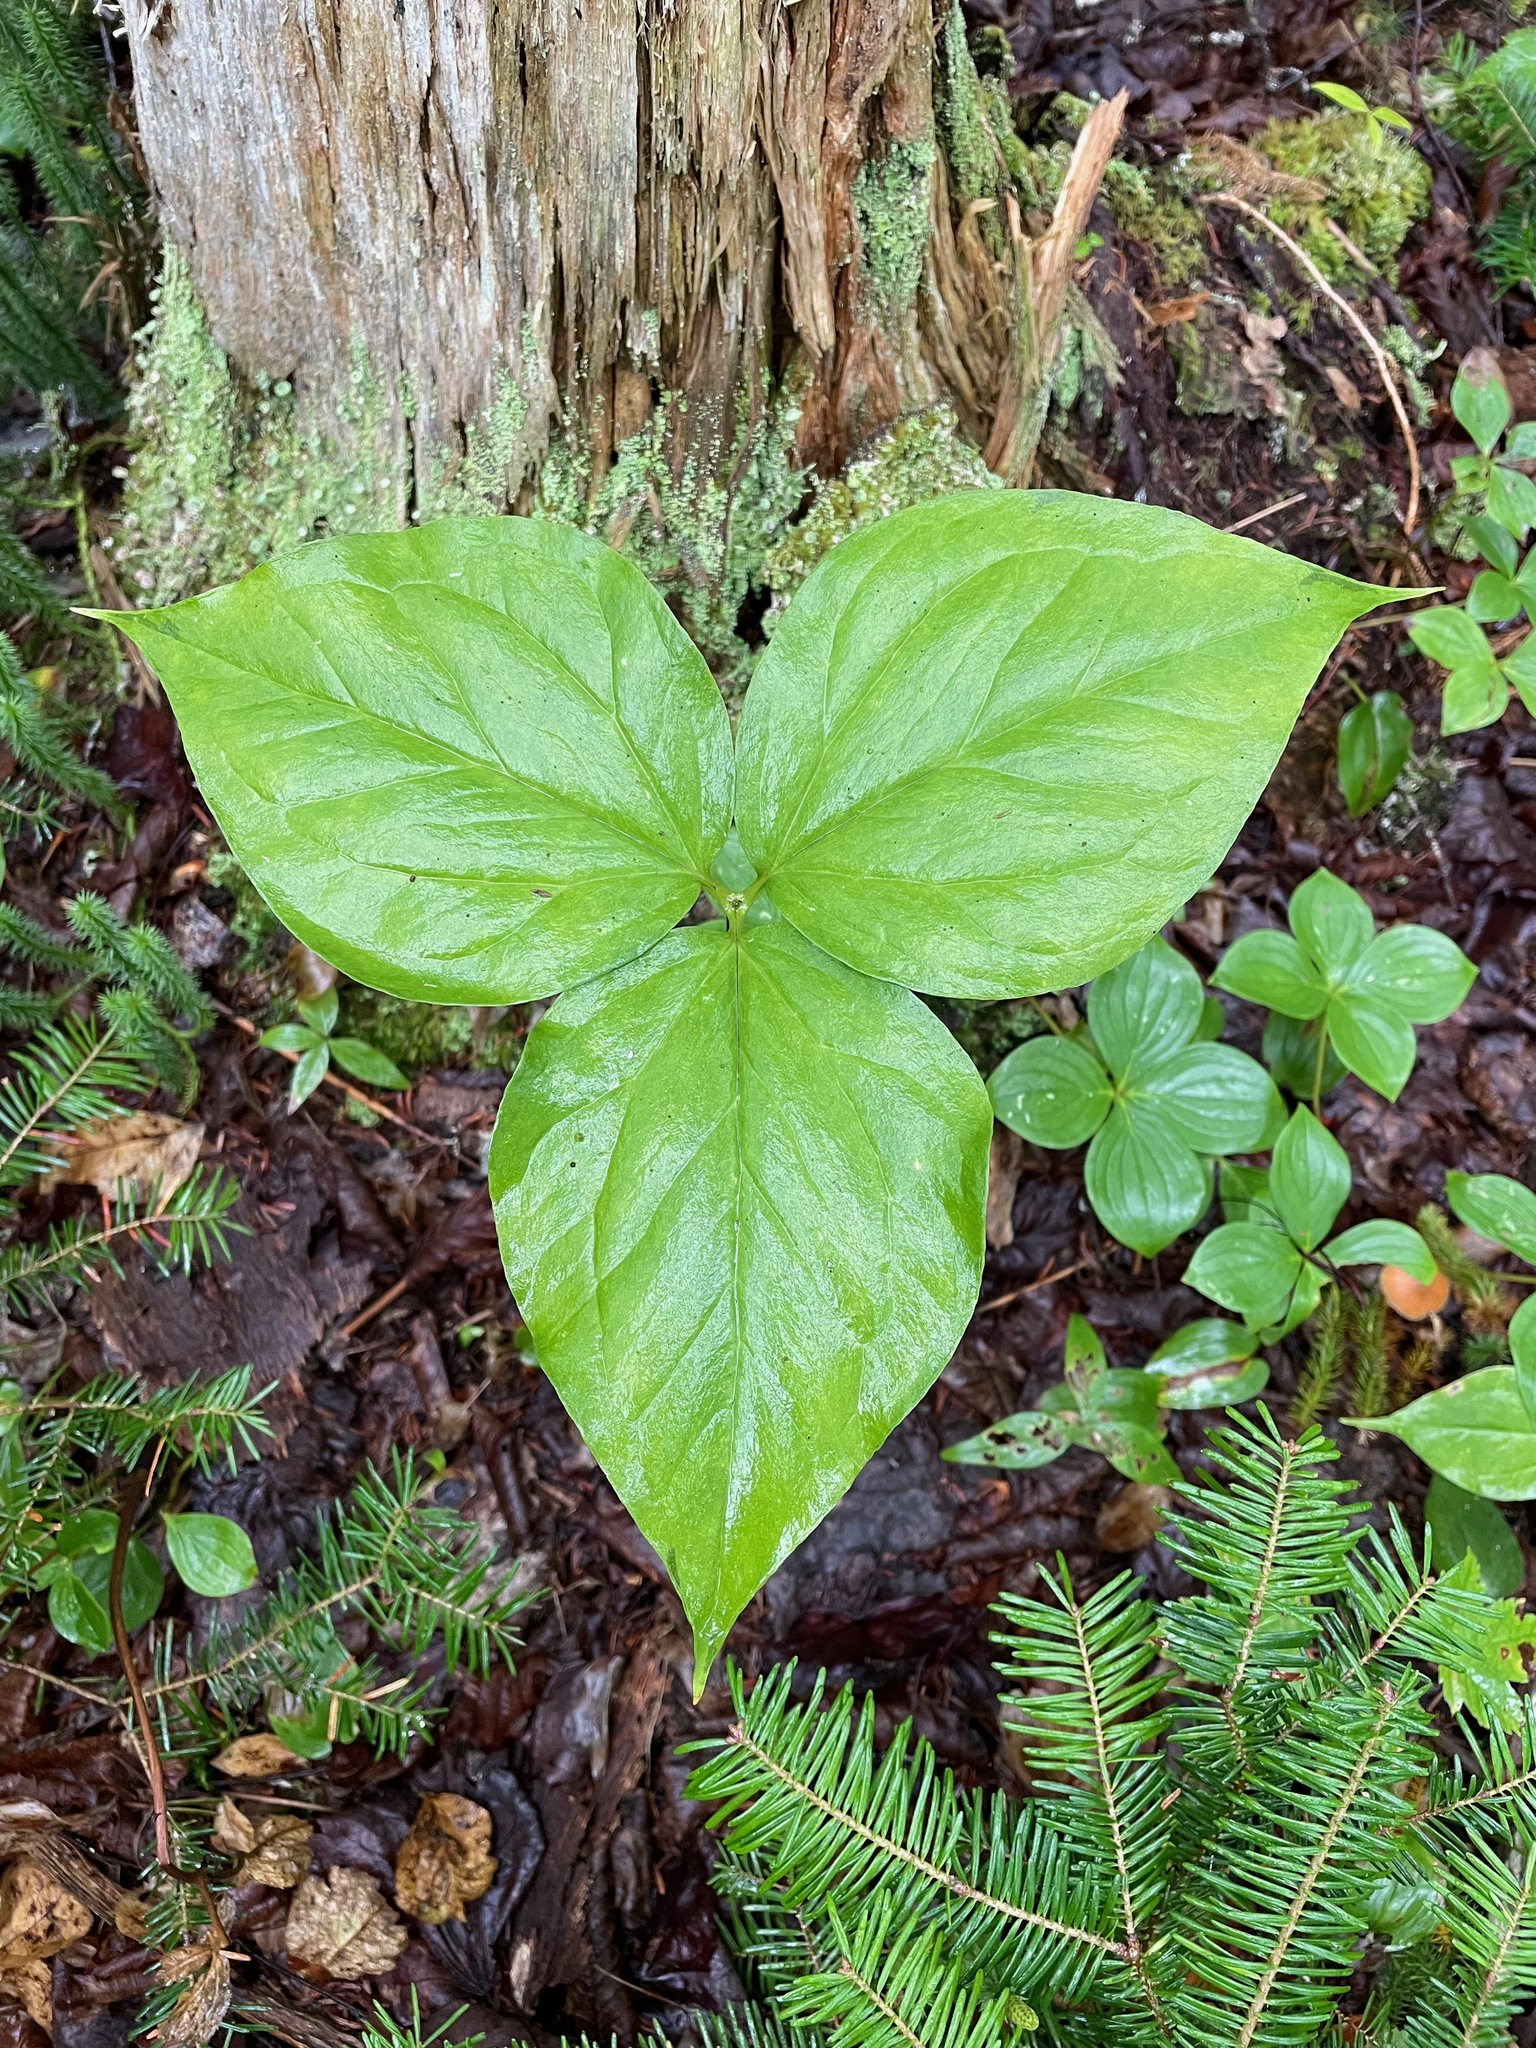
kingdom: Plantae
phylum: Tracheophyta
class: Liliopsida
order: Liliales
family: Melanthiaceae
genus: Trillium
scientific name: Trillium undulatum
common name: Paint trillium
